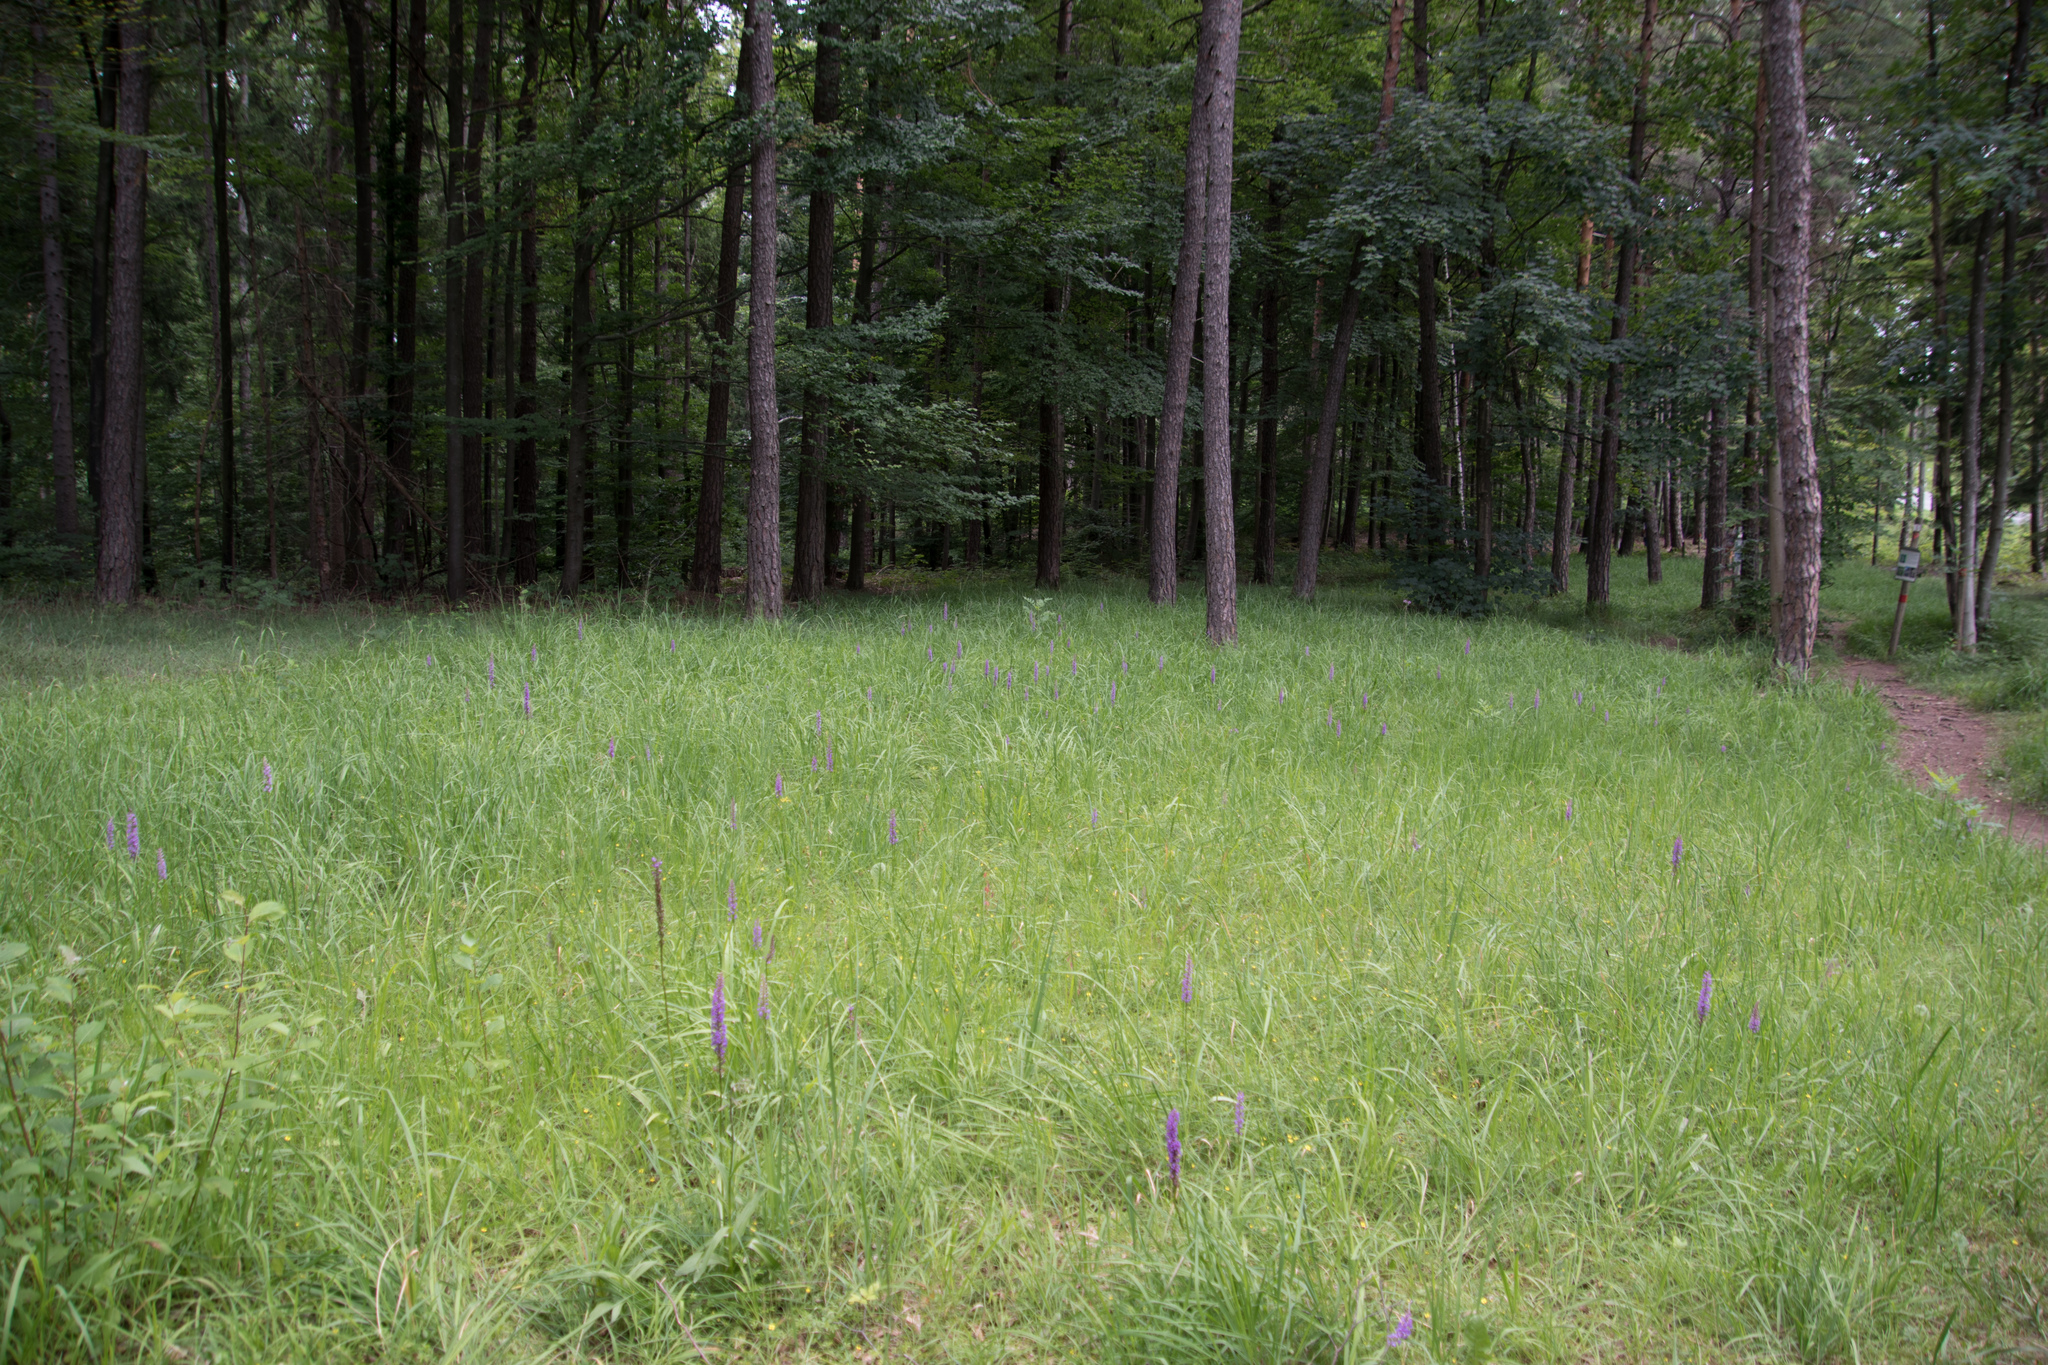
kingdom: Plantae
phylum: Tracheophyta
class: Liliopsida
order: Asparagales
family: Orchidaceae
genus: Gymnadenia
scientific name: Gymnadenia conopsea
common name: Fragrant orchid
